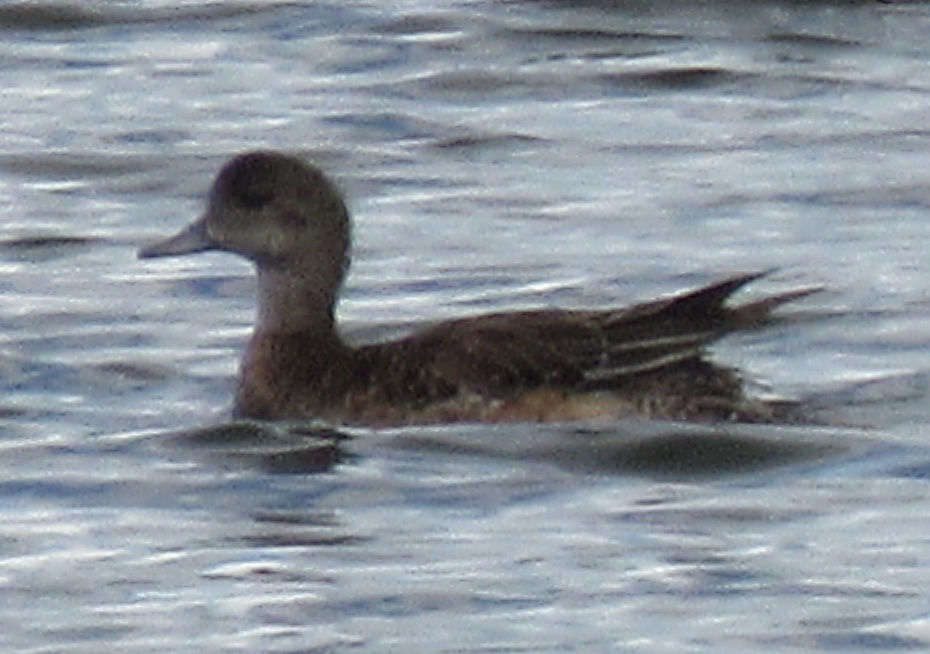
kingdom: Animalia
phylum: Chordata
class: Aves
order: Anseriformes
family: Anatidae
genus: Mareca
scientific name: Mareca americana
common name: American wigeon
